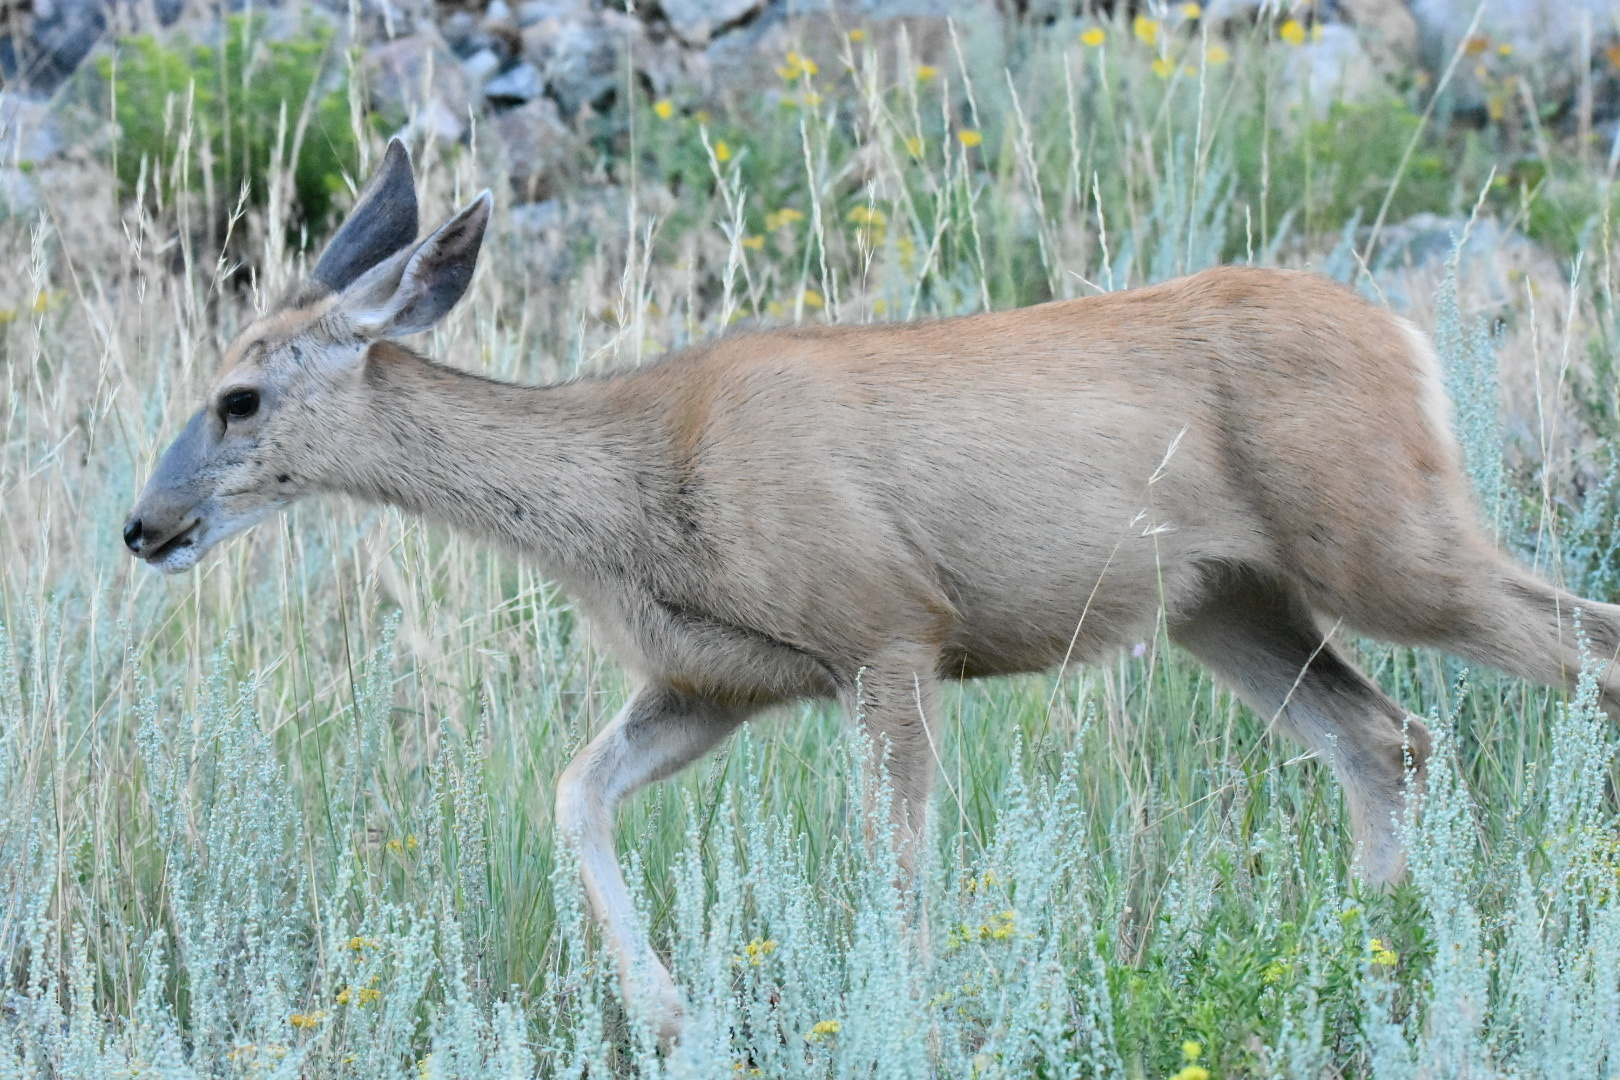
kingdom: Animalia
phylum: Chordata
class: Mammalia
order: Artiodactyla
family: Cervidae
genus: Odocoileus
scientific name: Odocoileus hemionus
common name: Mule deer
